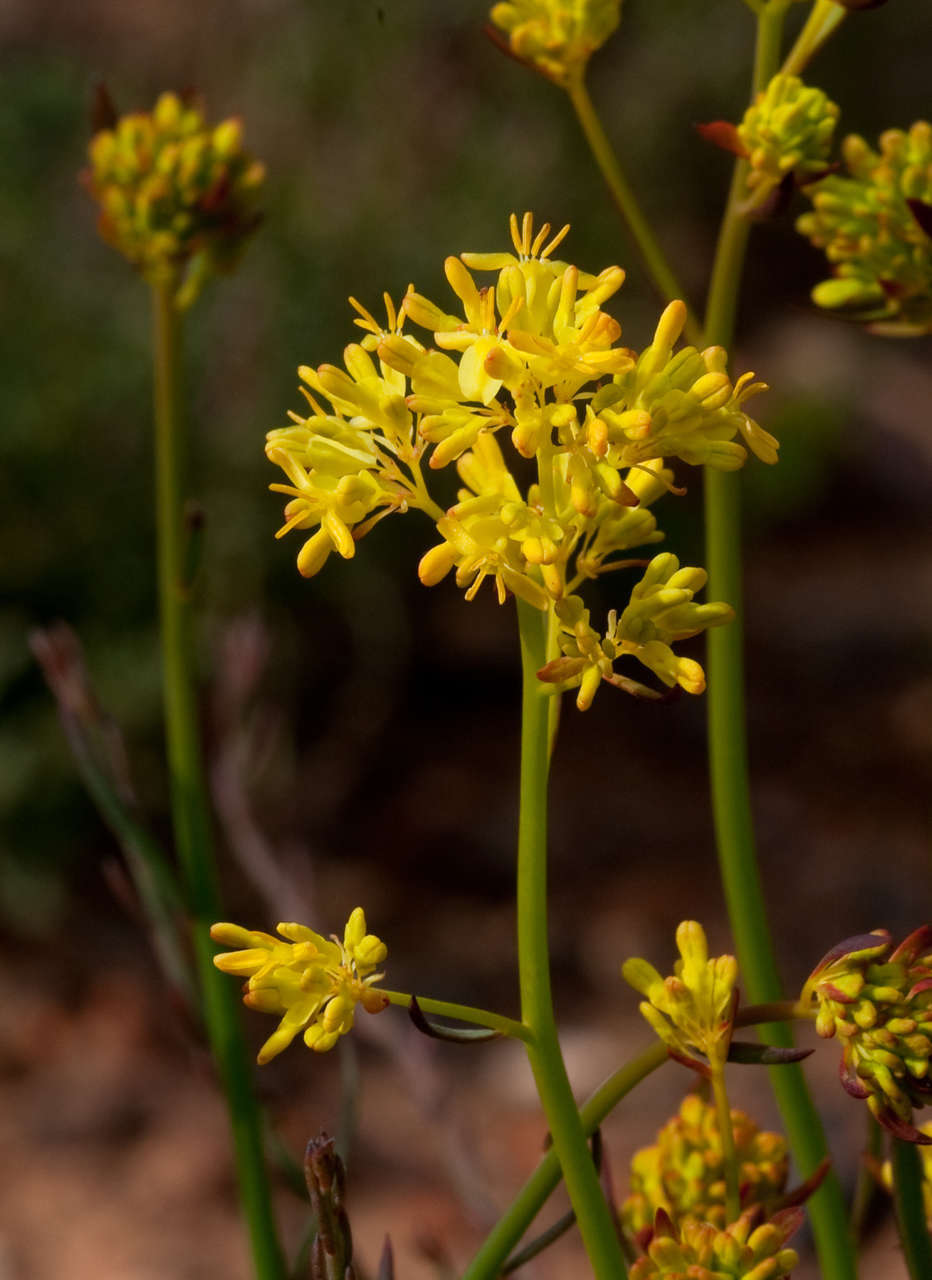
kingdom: Plantae
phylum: Tracheophyta
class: Magnoliopsida
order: Saxifragales
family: Haloragaceae
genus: Glischrocaryon
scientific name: Glischrocaryon behrii
